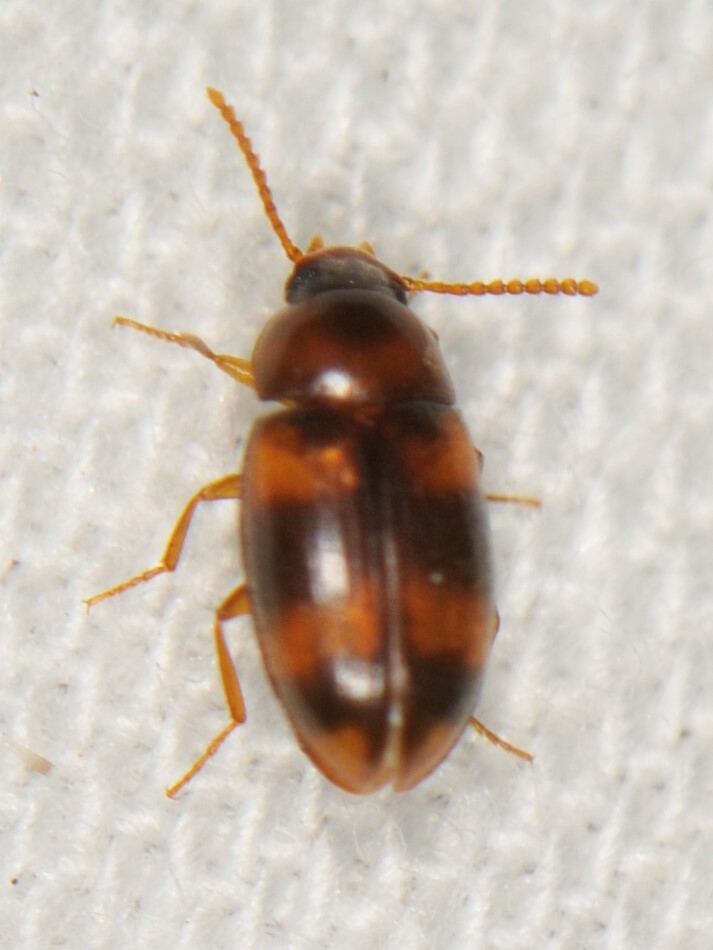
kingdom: Animalia
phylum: Arthropoda
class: Insecta
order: Coleoptera
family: Tenebrionidae
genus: Alphitophagus
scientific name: Alphitophagus bifasciatus
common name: Two-banded fungus beetle
